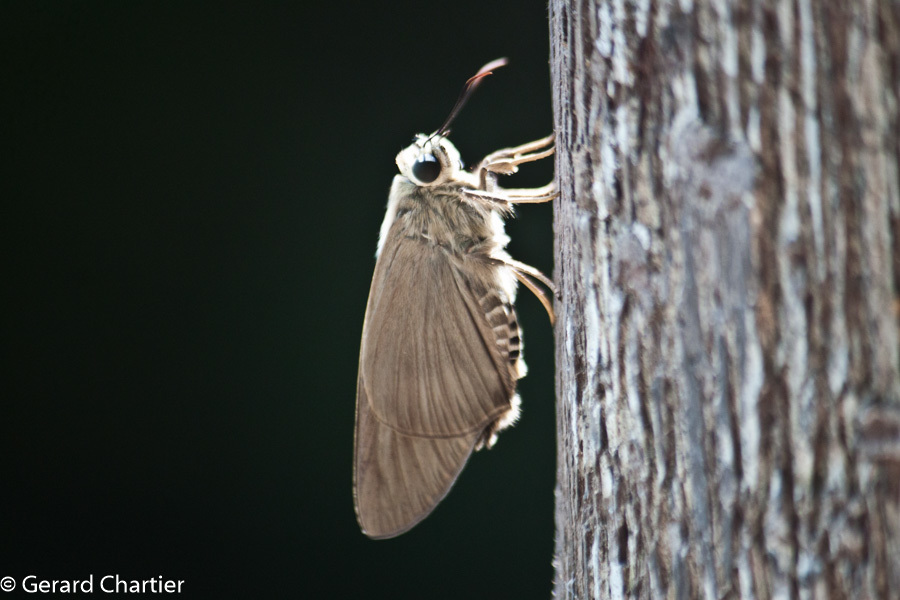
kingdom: Animalia
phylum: Arthropoda
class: Insecta
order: Lepidoptera
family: Hesperiidae
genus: Badamia
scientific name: Badamia exclamationis
